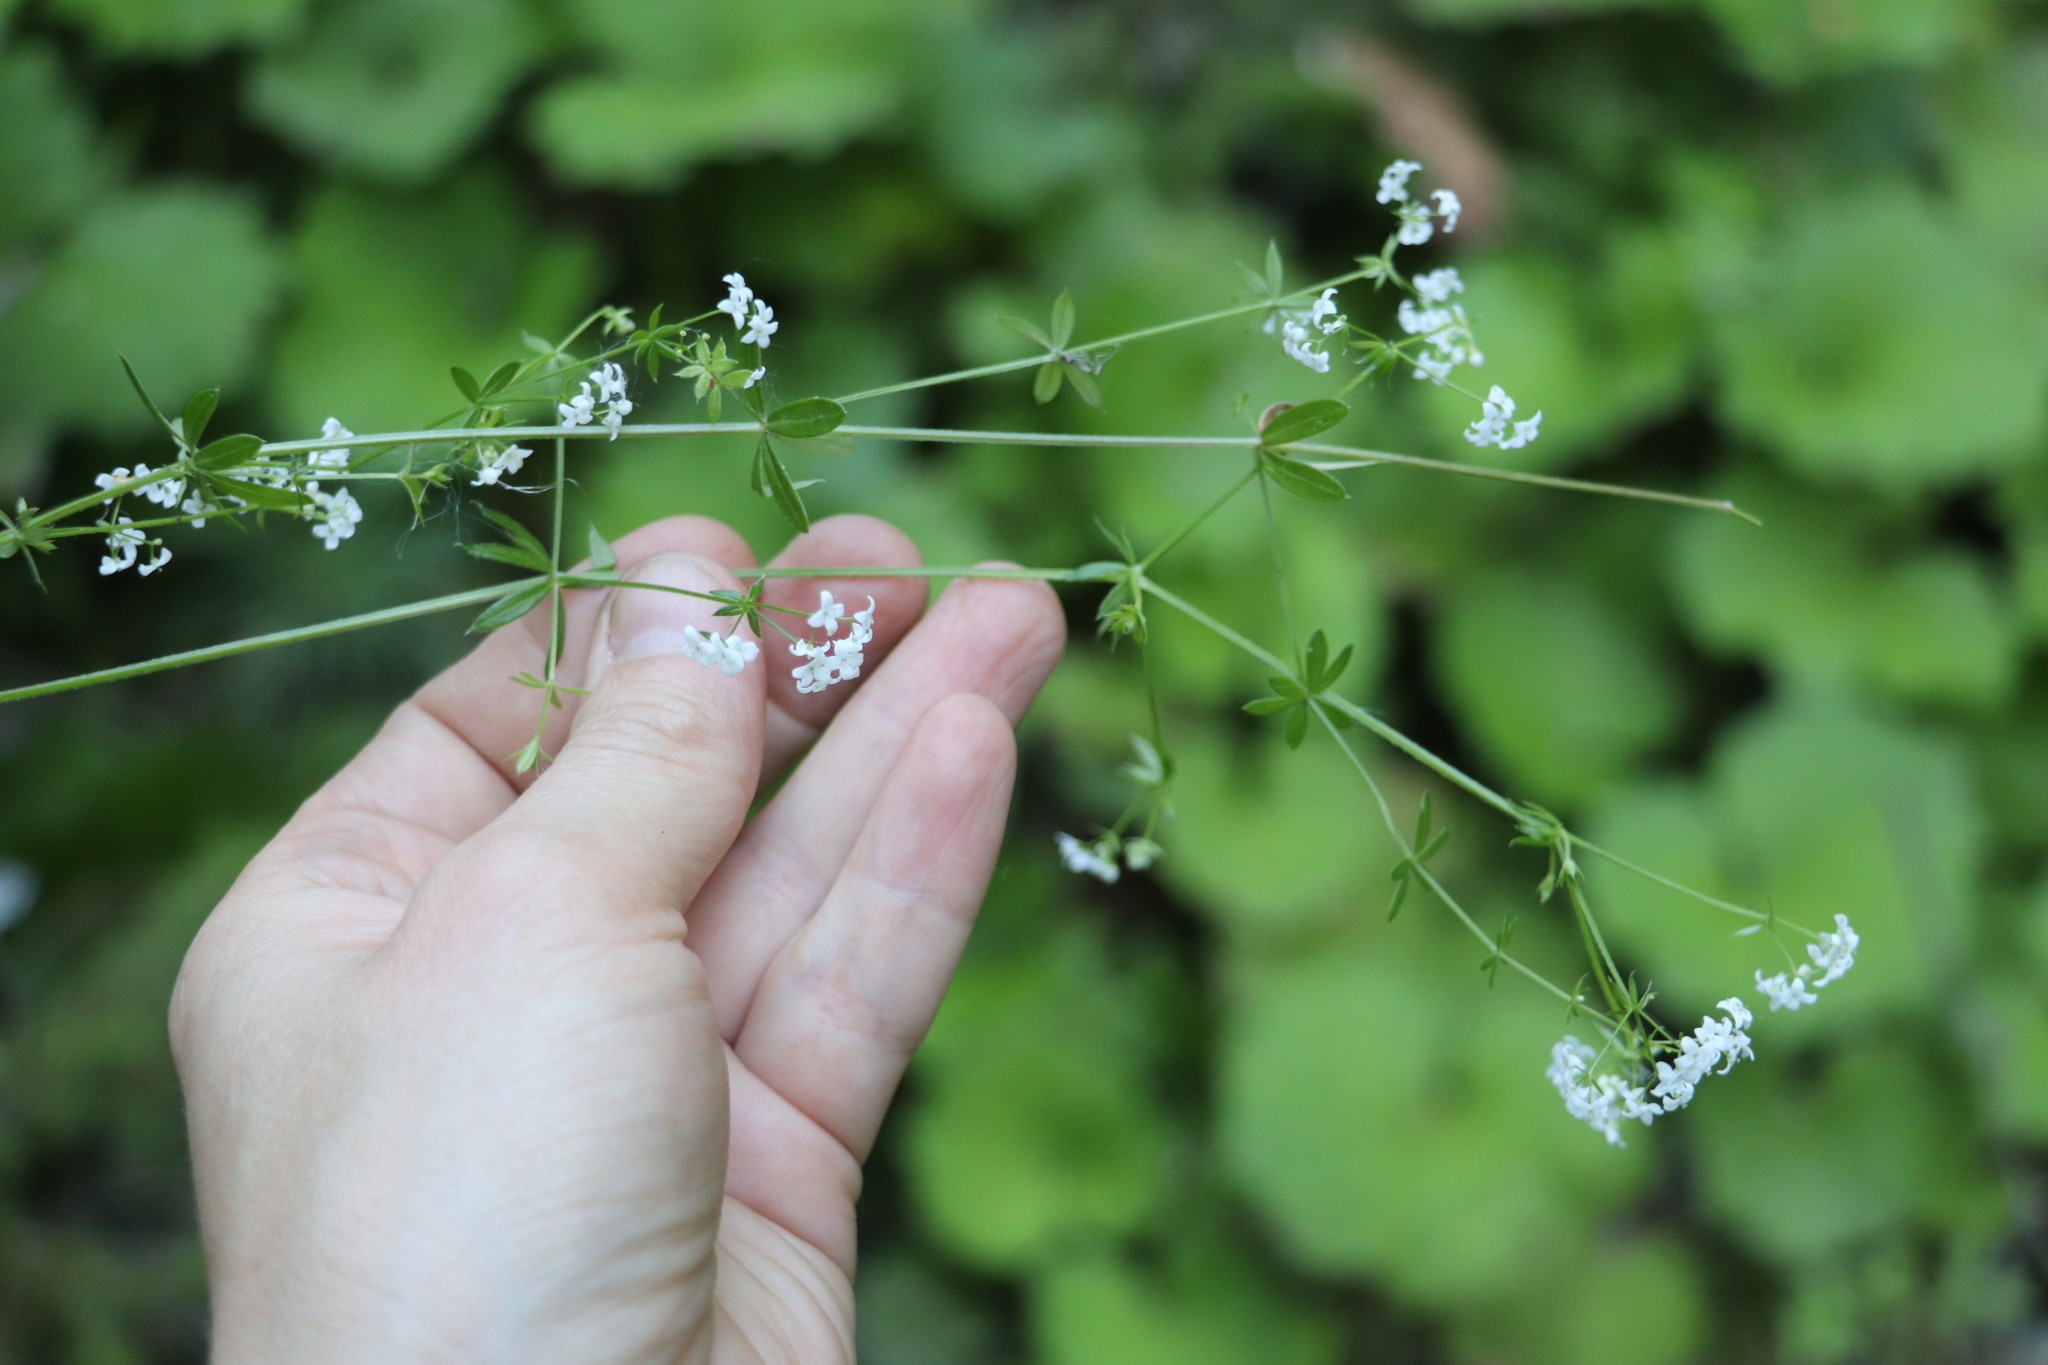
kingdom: Plantae
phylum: Tracheophyta
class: Magnoliopsida
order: Gentianales
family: Rubiaceae
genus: Galium
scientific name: Galium uliginosum
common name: Fen bedstraw
